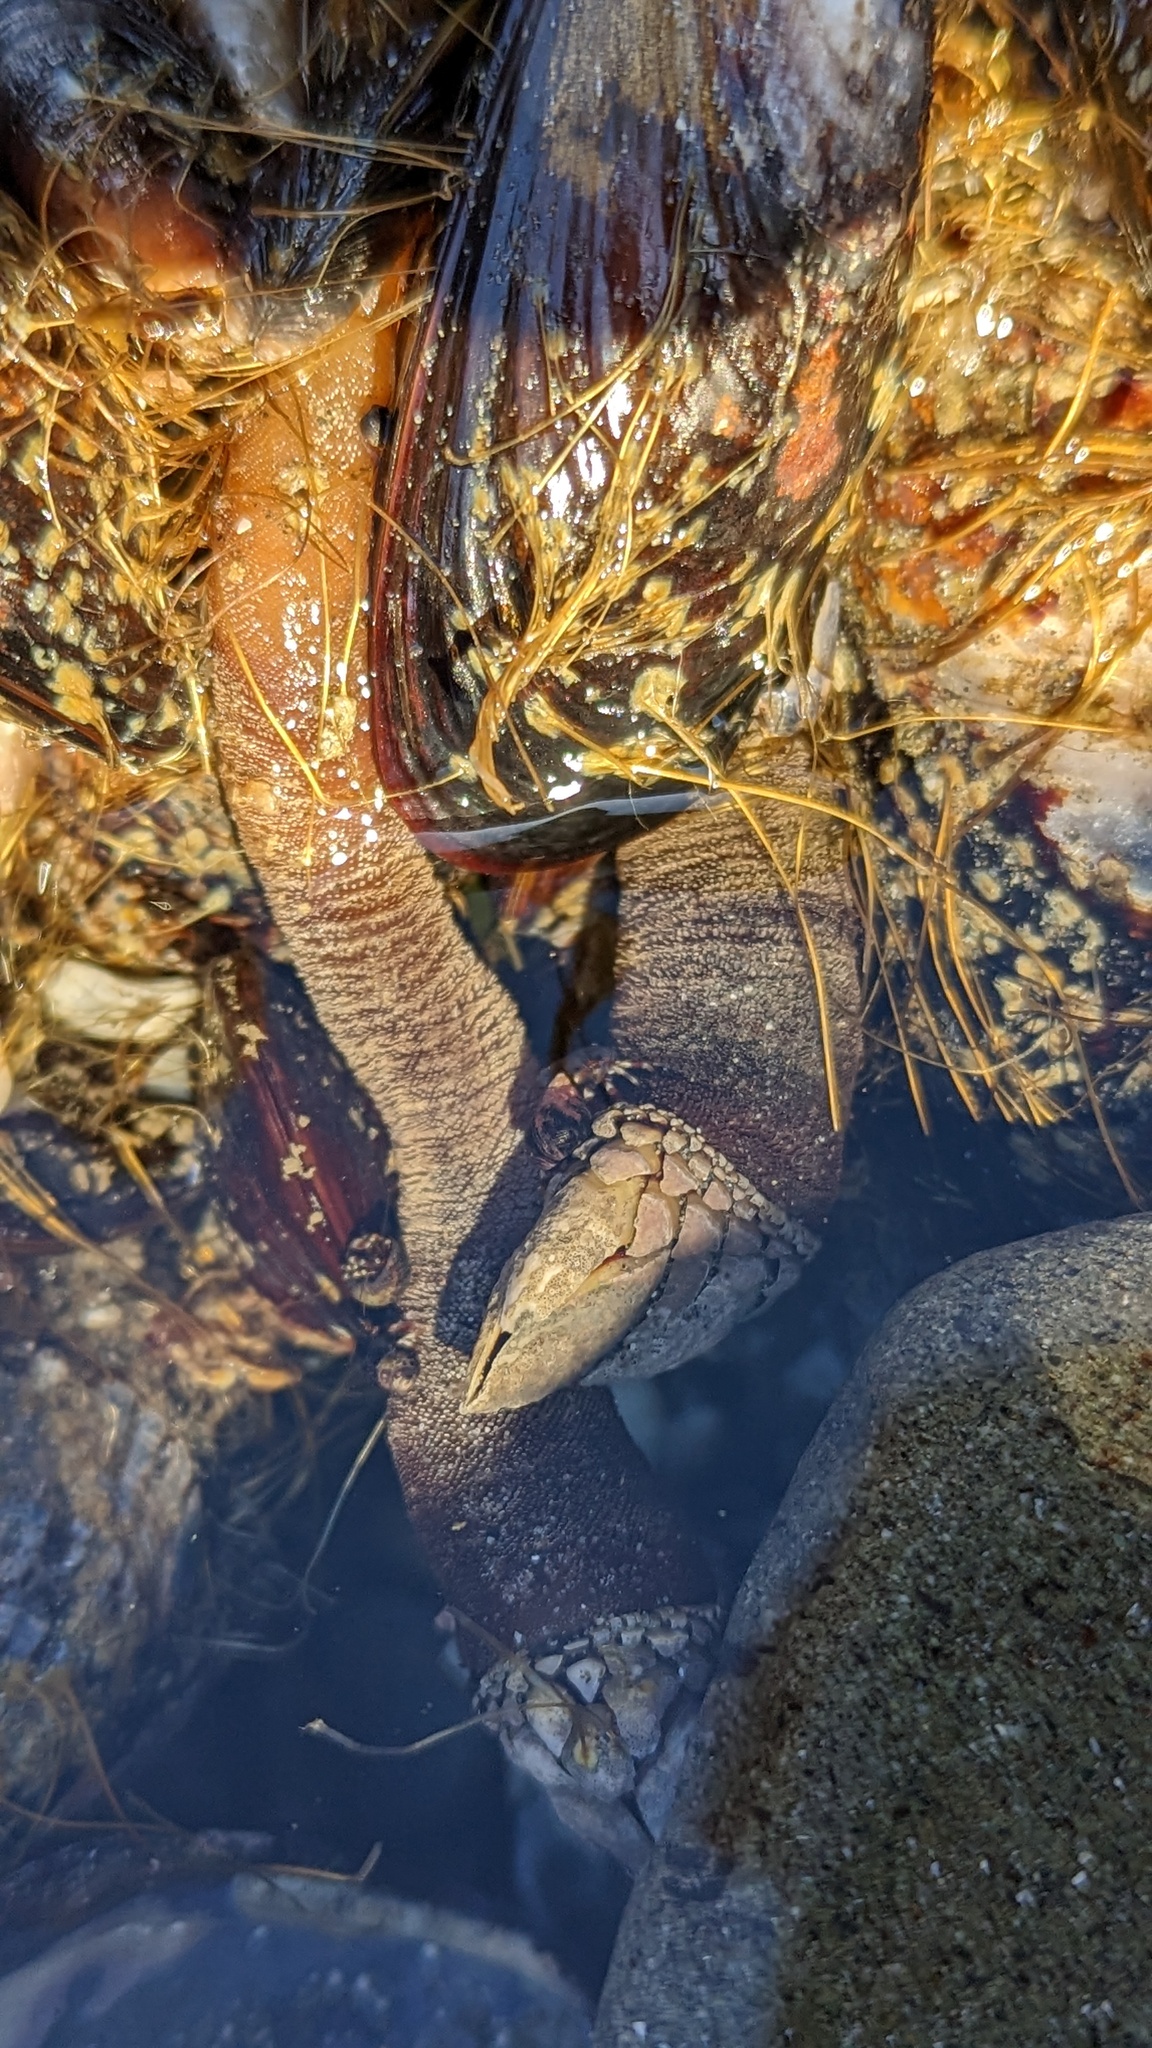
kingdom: Animalia
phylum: Arthropoda
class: Maxillopoda
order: Pedunculata
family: Pollicipedidae
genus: Pollicipes
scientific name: Pollicipes polymerus
